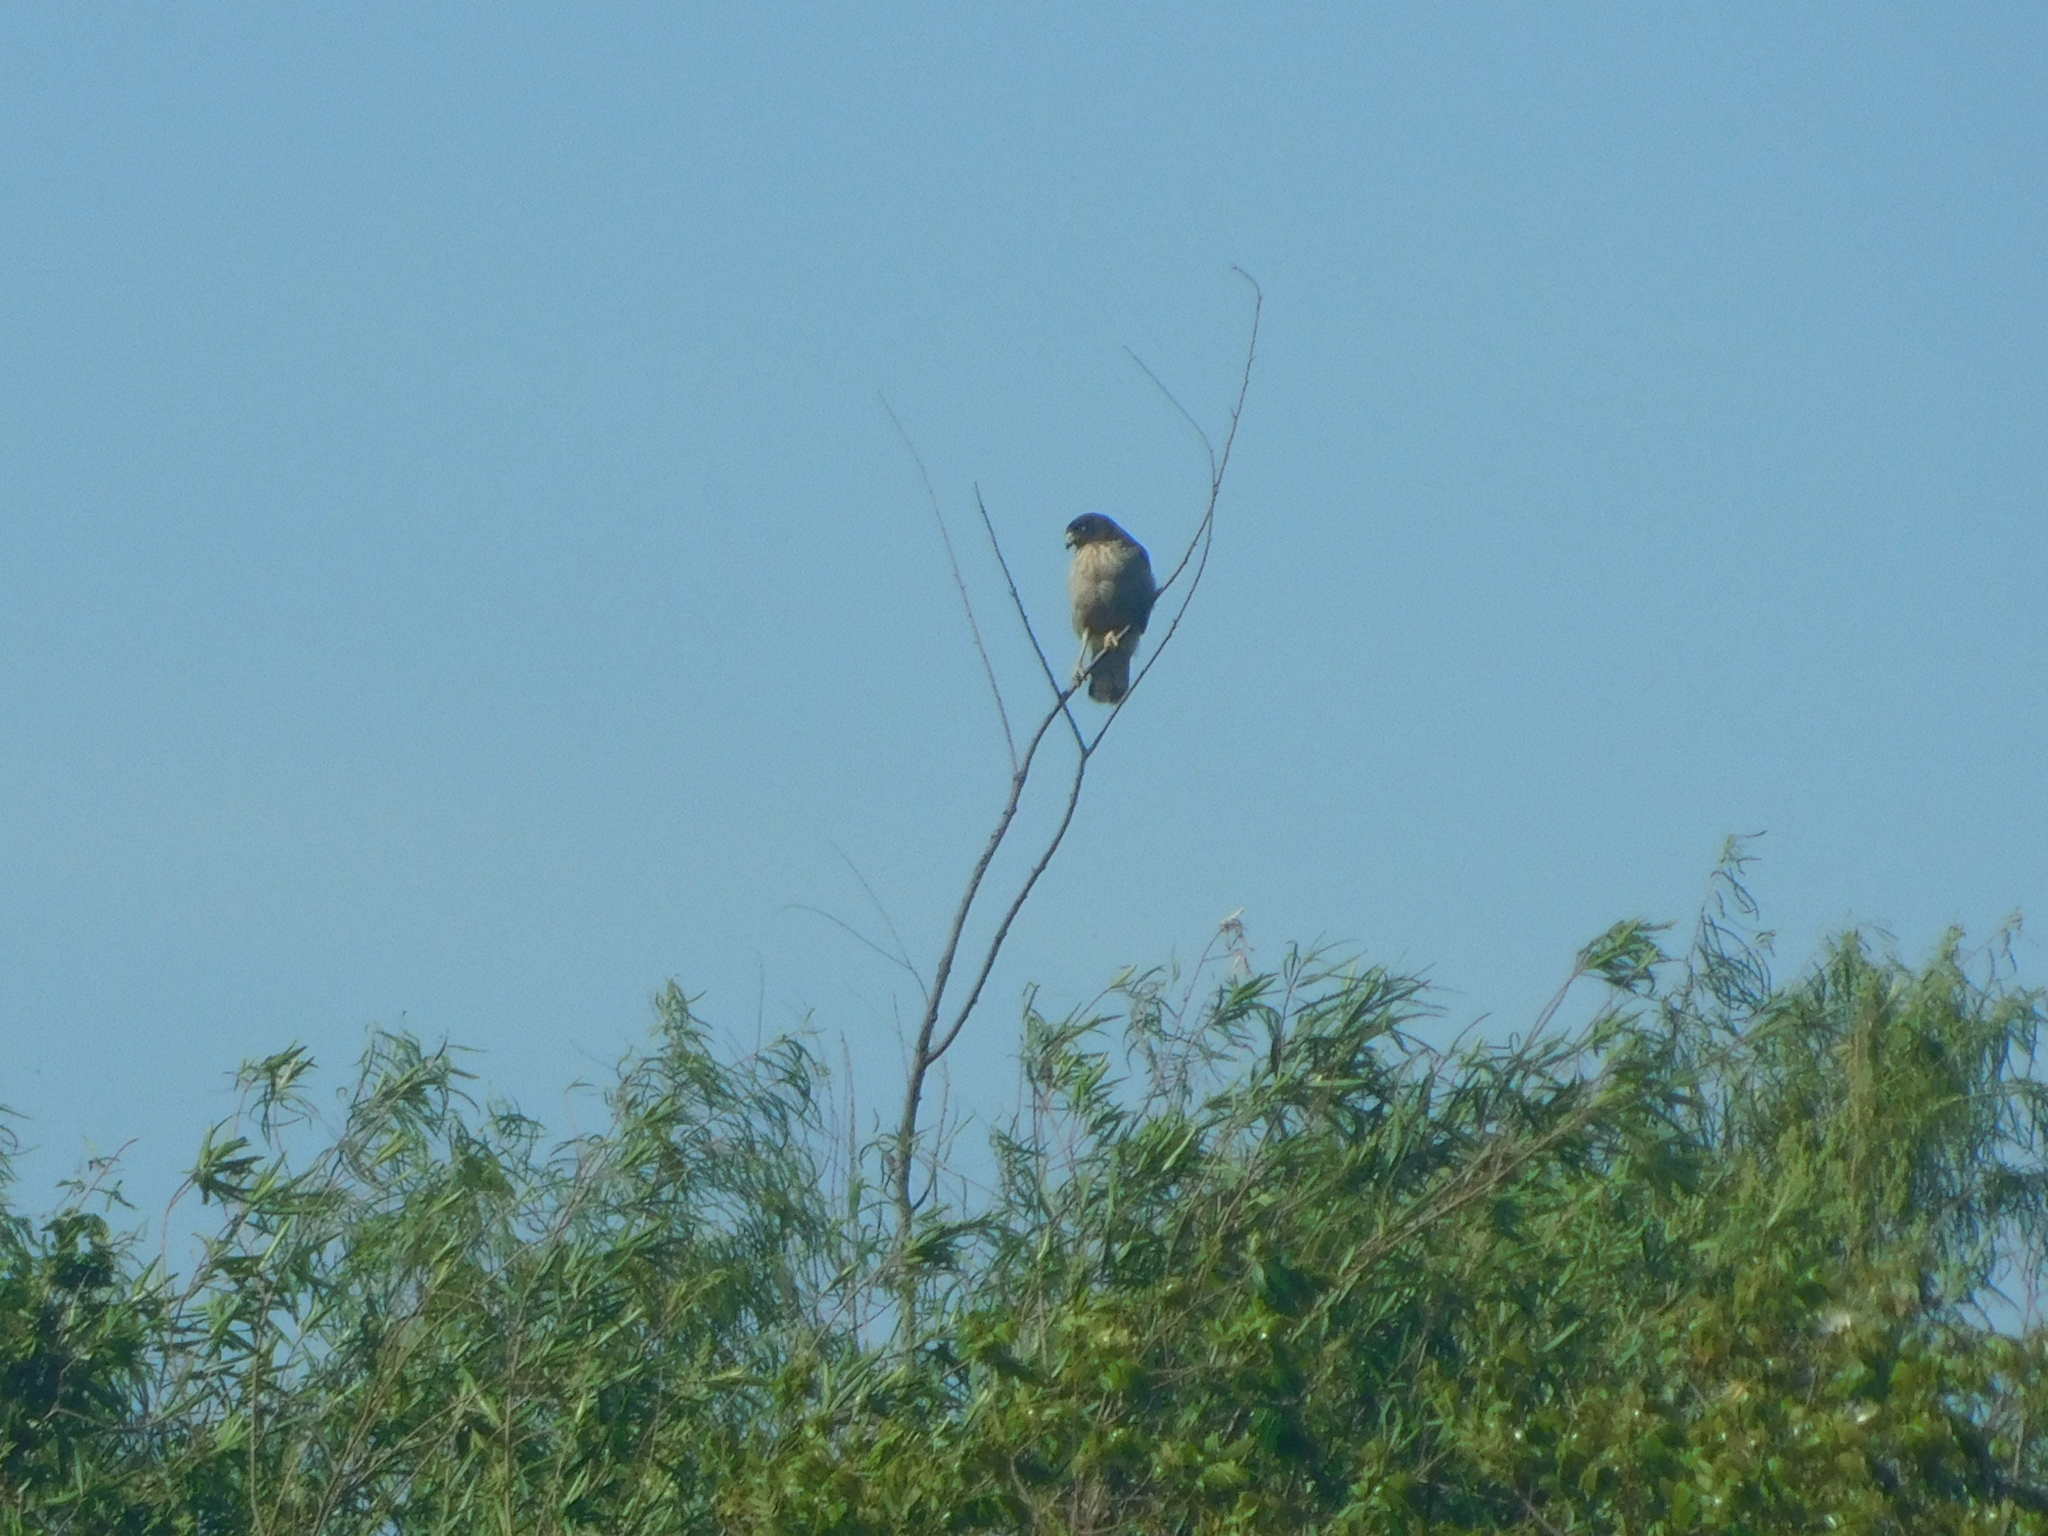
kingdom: Animalia
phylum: Chordata
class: Aves
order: Accipitriformes
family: Accipitridae
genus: Rupornis
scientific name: Rupornis magnirostris
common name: Roadside hawk
